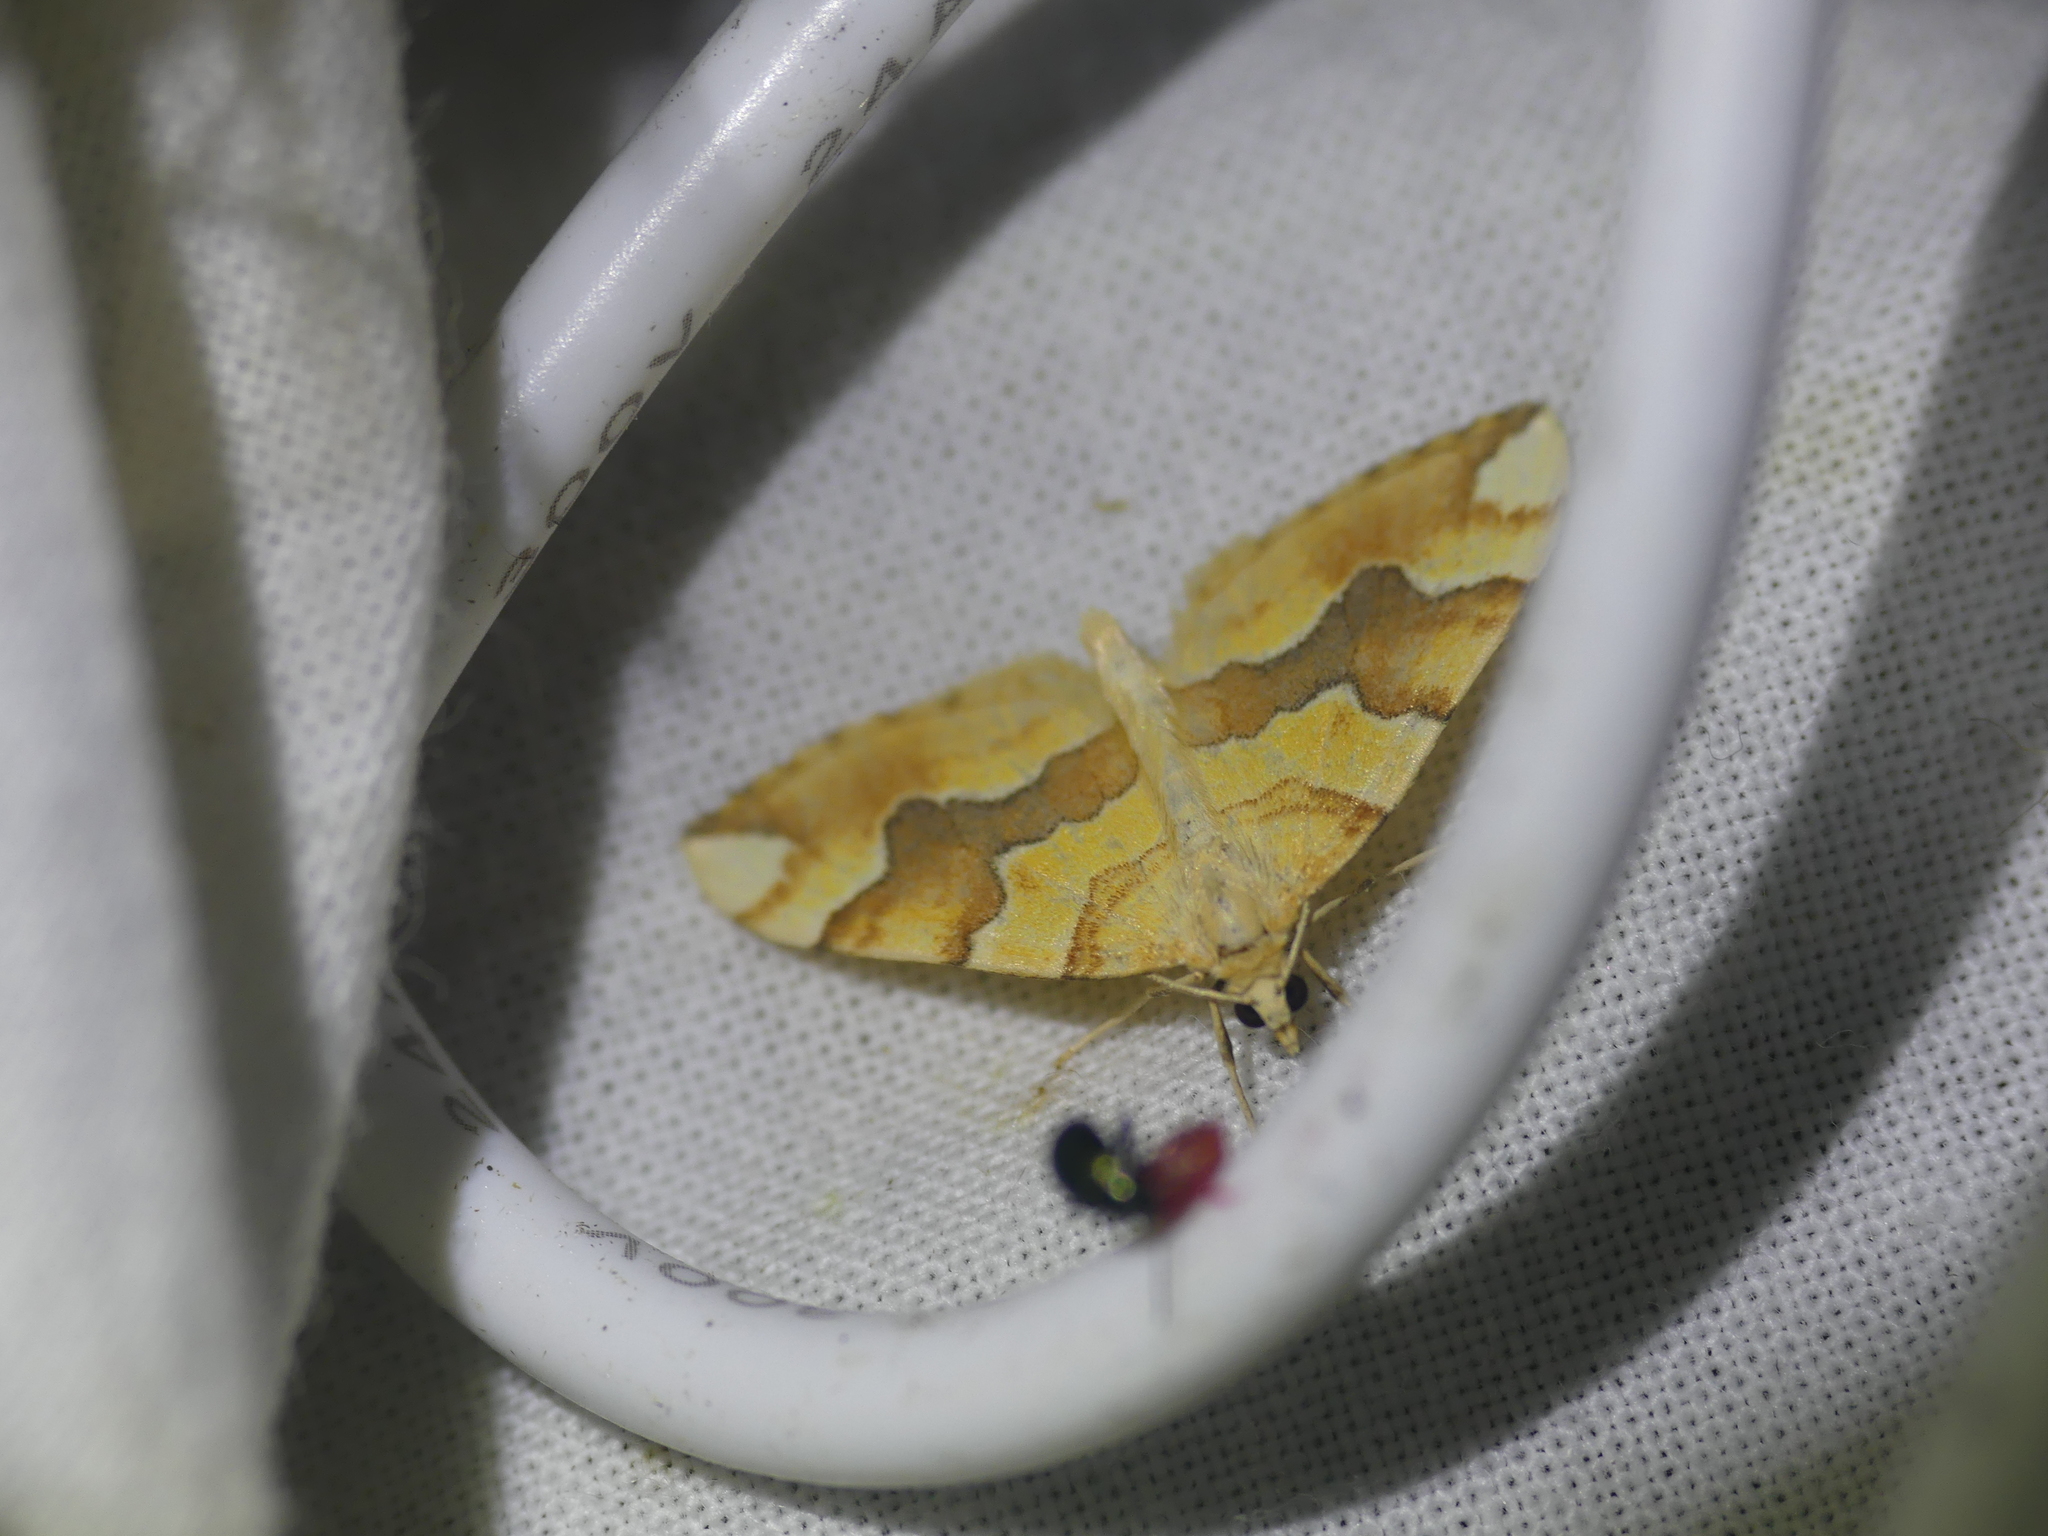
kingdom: Animalia
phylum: Arthropoda
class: Insecta
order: Lepidoptera
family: Geometridae
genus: Cidaria
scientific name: Cidaria fulvata
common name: Barred yellow
